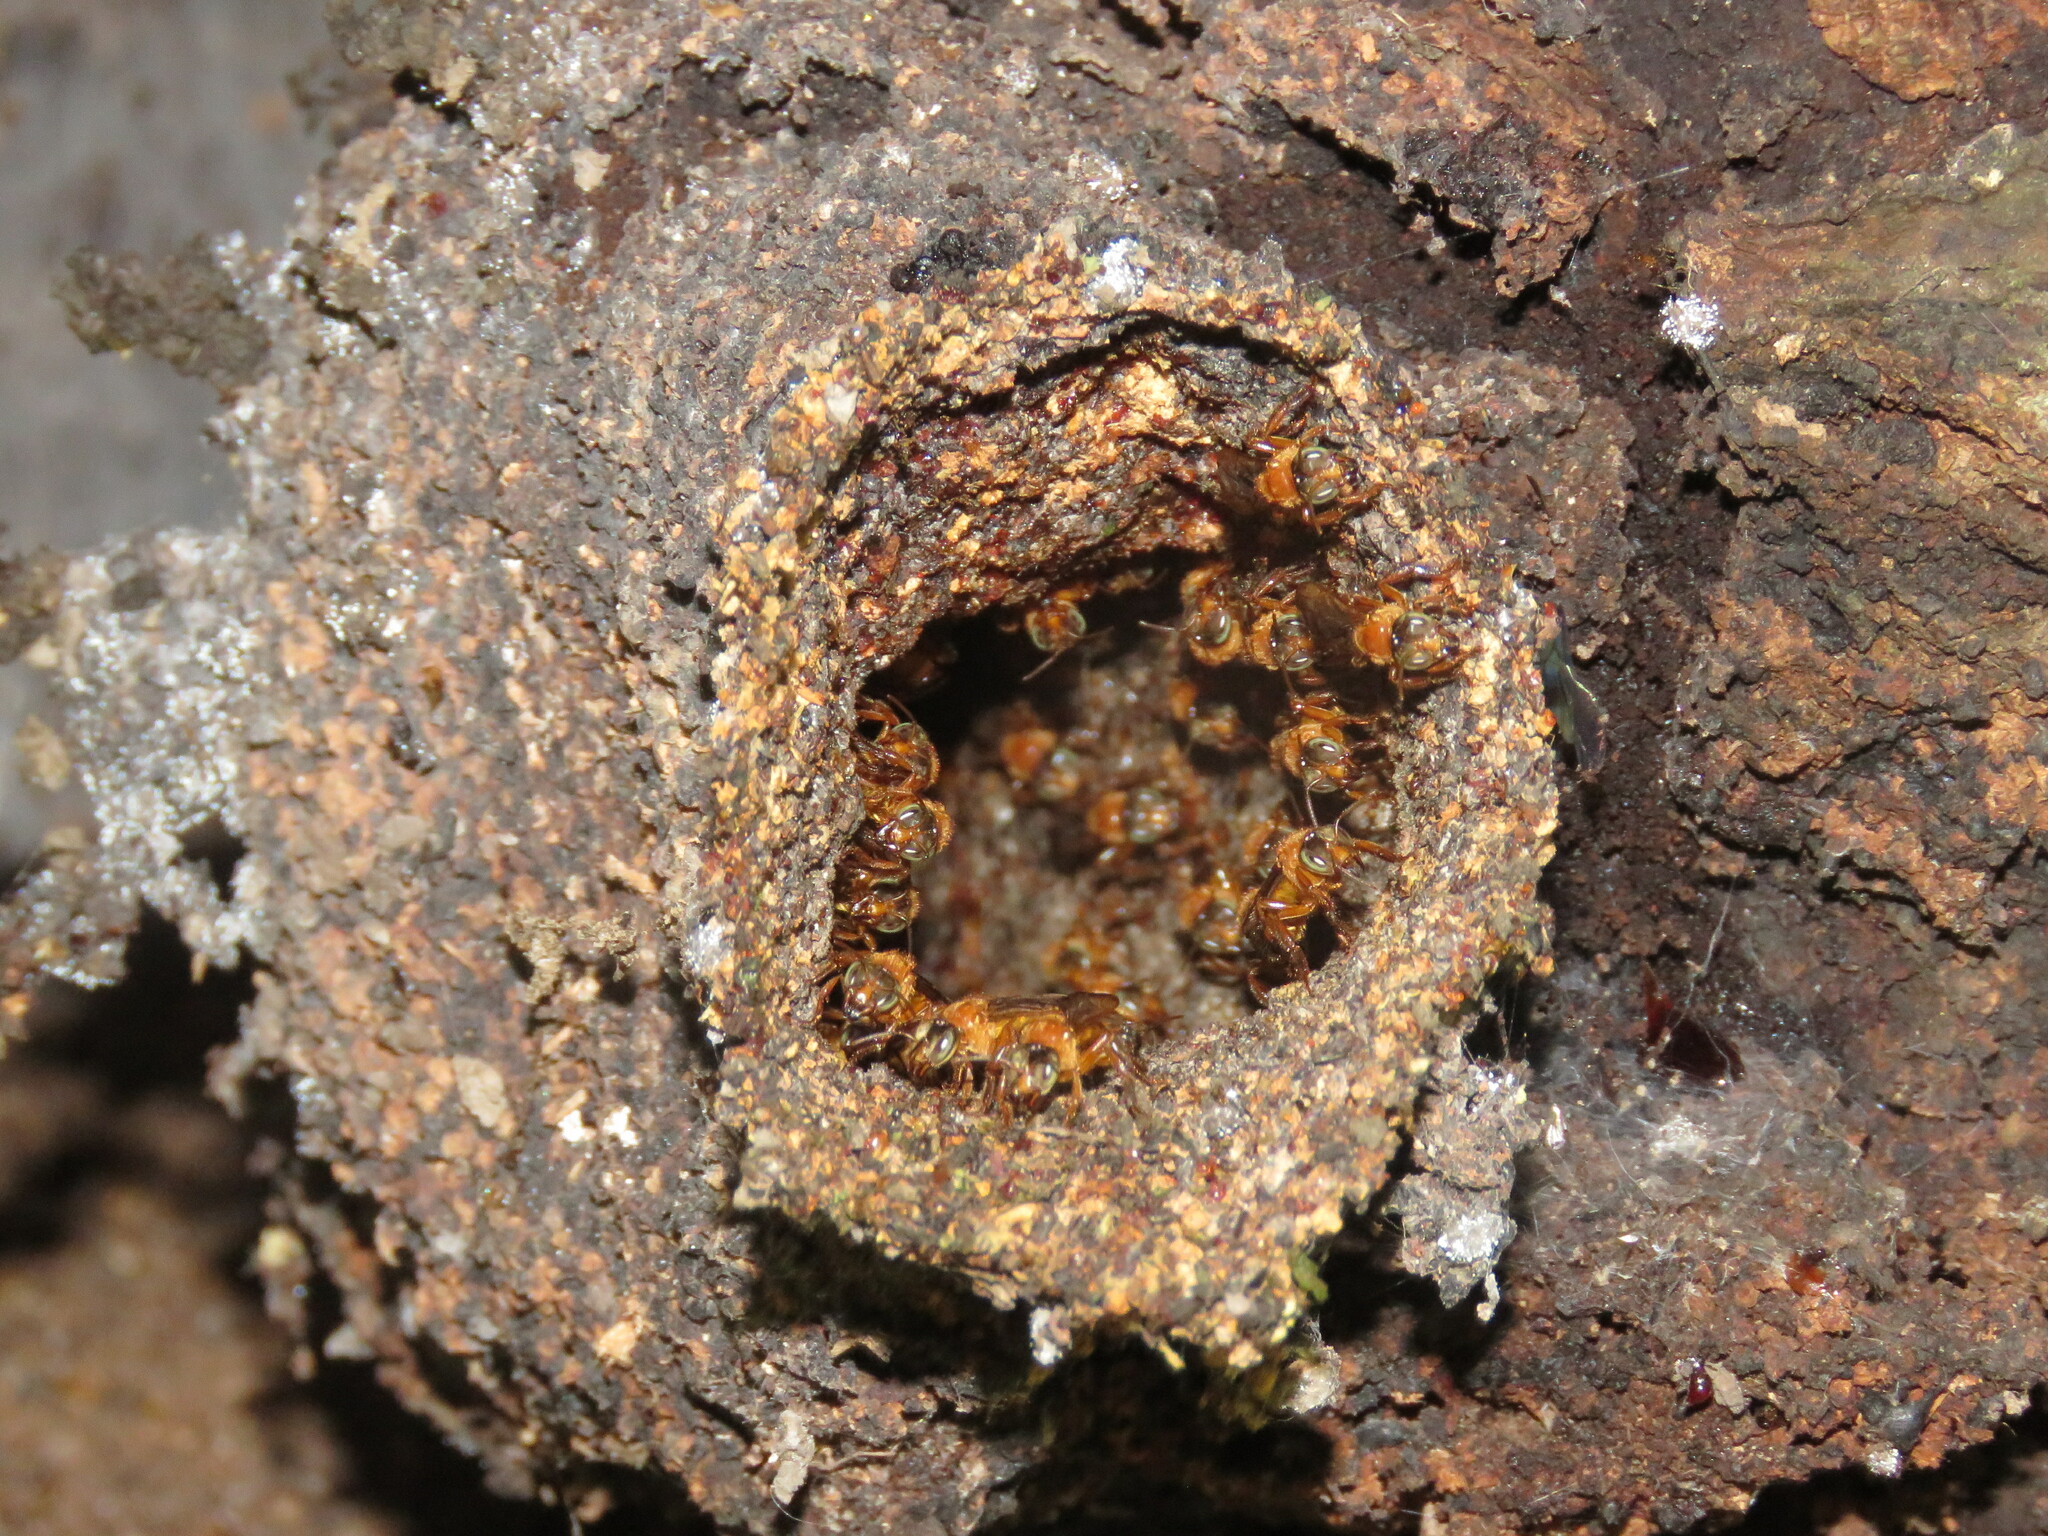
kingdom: Animalia
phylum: Arthropoda
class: Insecta
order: Hymenoptera
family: Apidae
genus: Trigona
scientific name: Trigona williana
